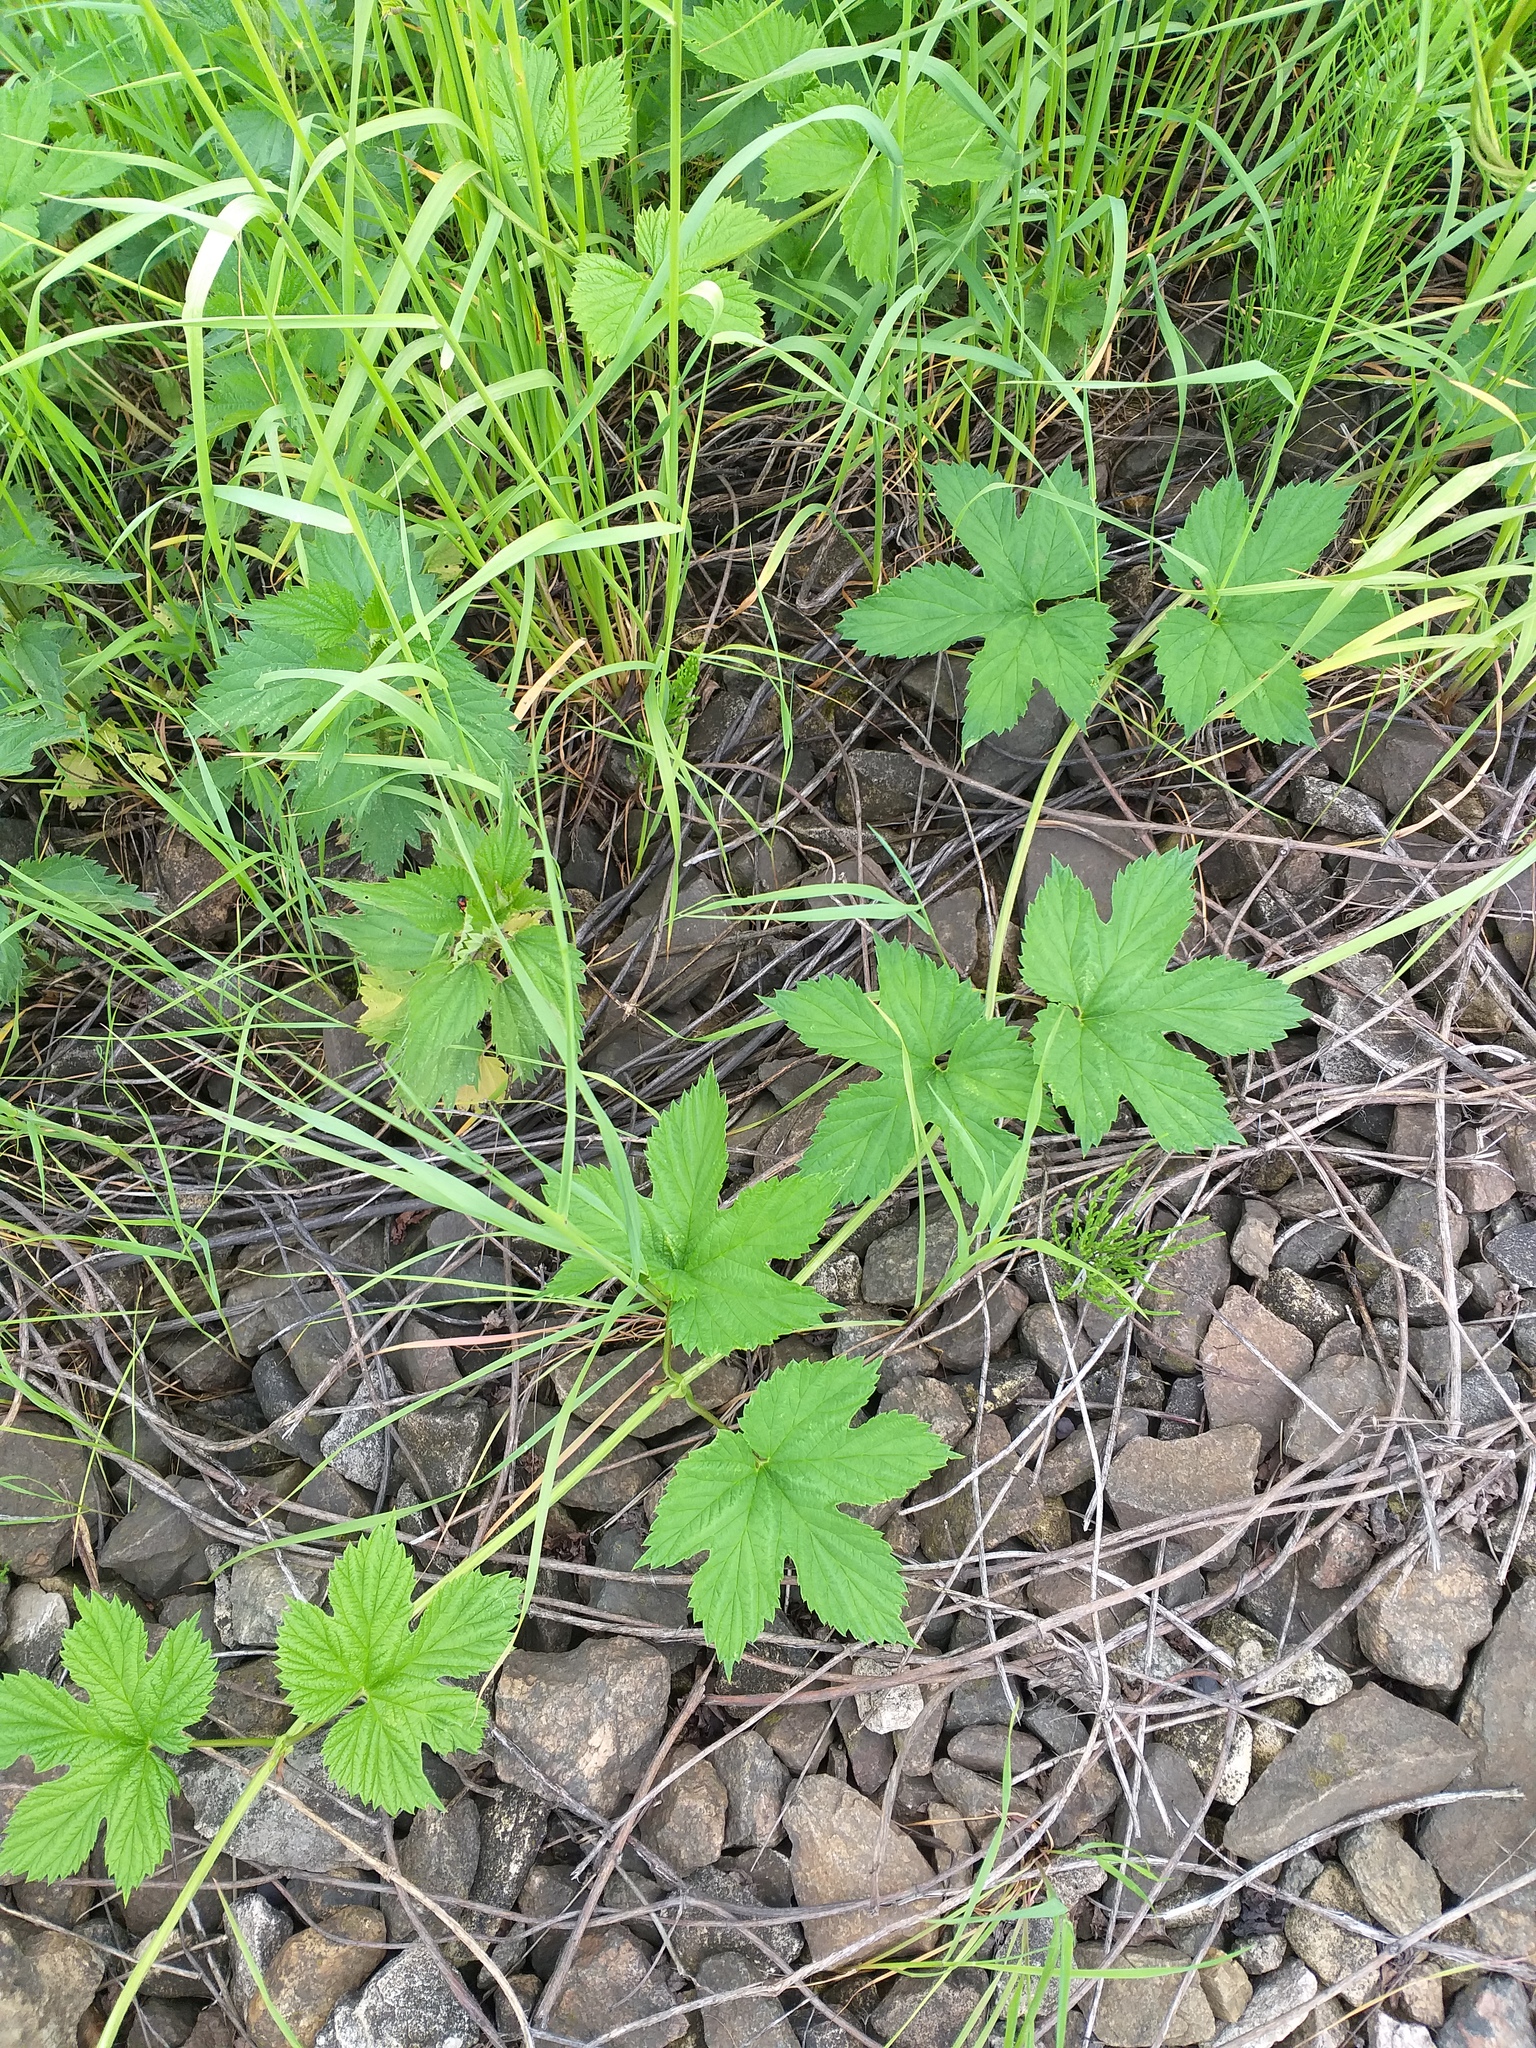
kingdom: Plantae
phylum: Tracheophyta
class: Magnoliopsida
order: Rosales
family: Cannabaceae
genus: Humulus
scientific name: Humulus lupulus
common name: Hop
